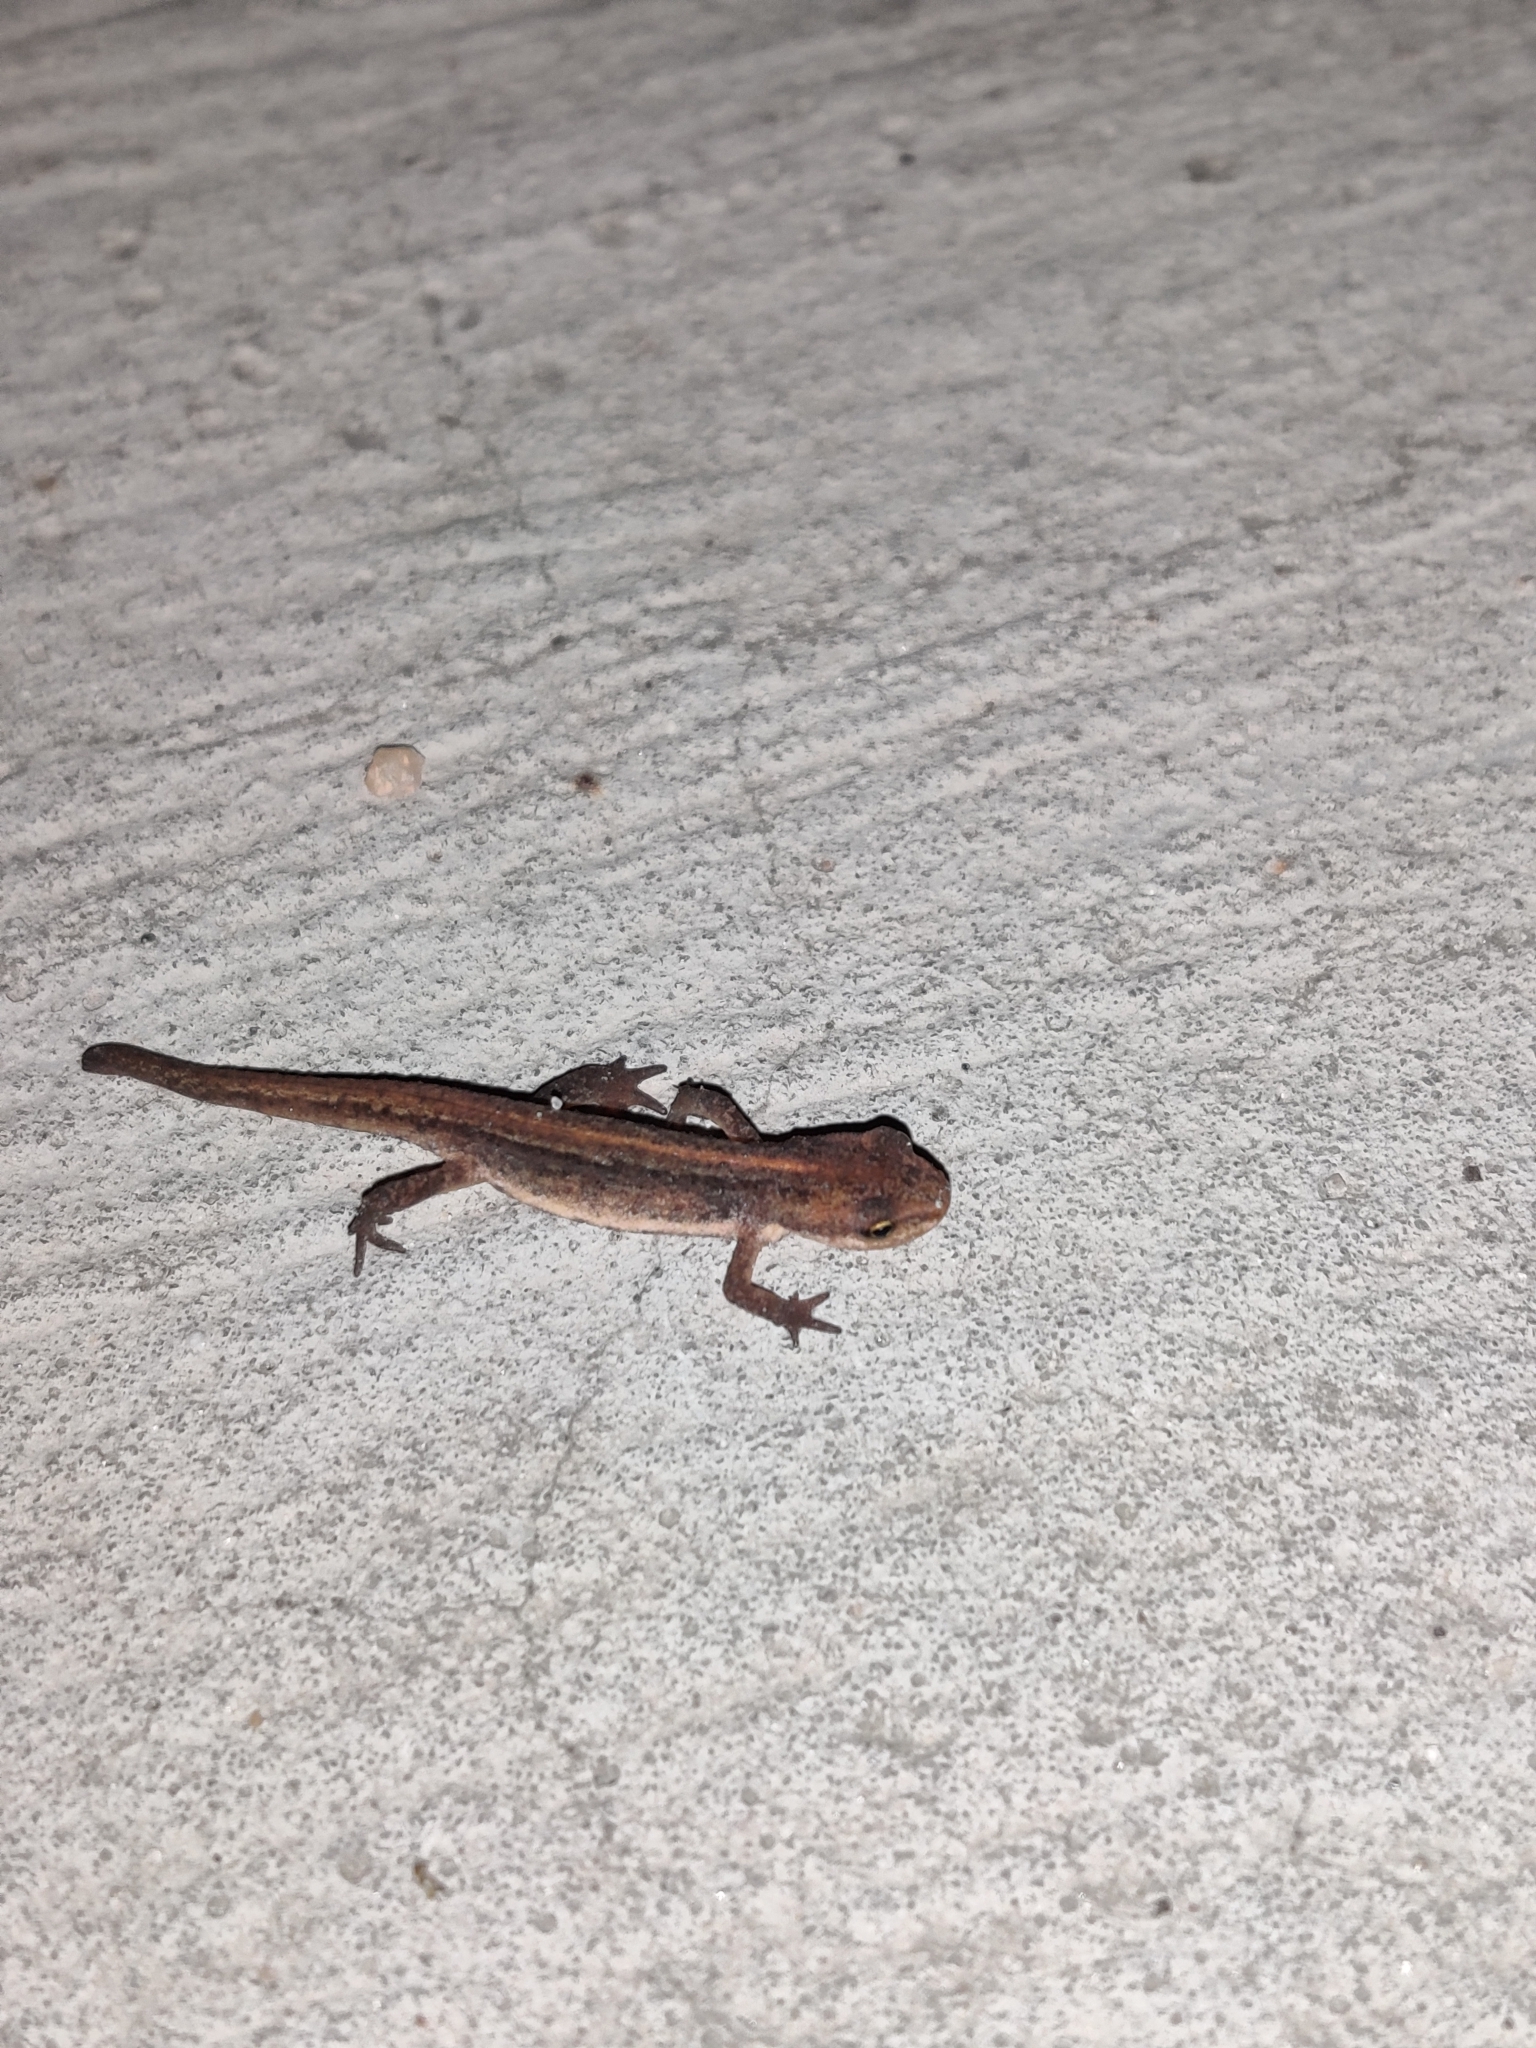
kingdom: Animalia
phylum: Chordata
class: Amphibia
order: Caudata
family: Salamandridae
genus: Lissotriton
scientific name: Lissotriton vulgaris
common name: Smooth newt
